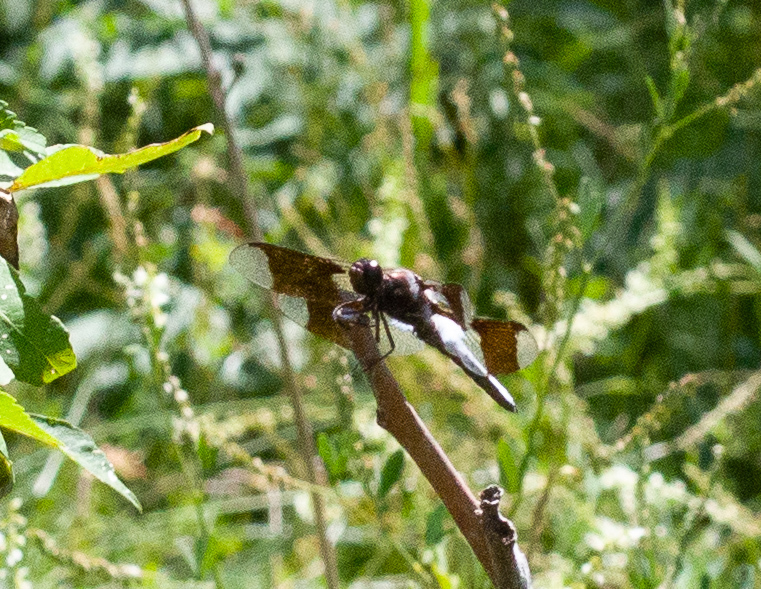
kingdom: Animalia
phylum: Arthropoda
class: Insecta
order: Odonata
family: Libellulidae
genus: Plathemis
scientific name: Plathemis lydia
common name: Common whitetail
